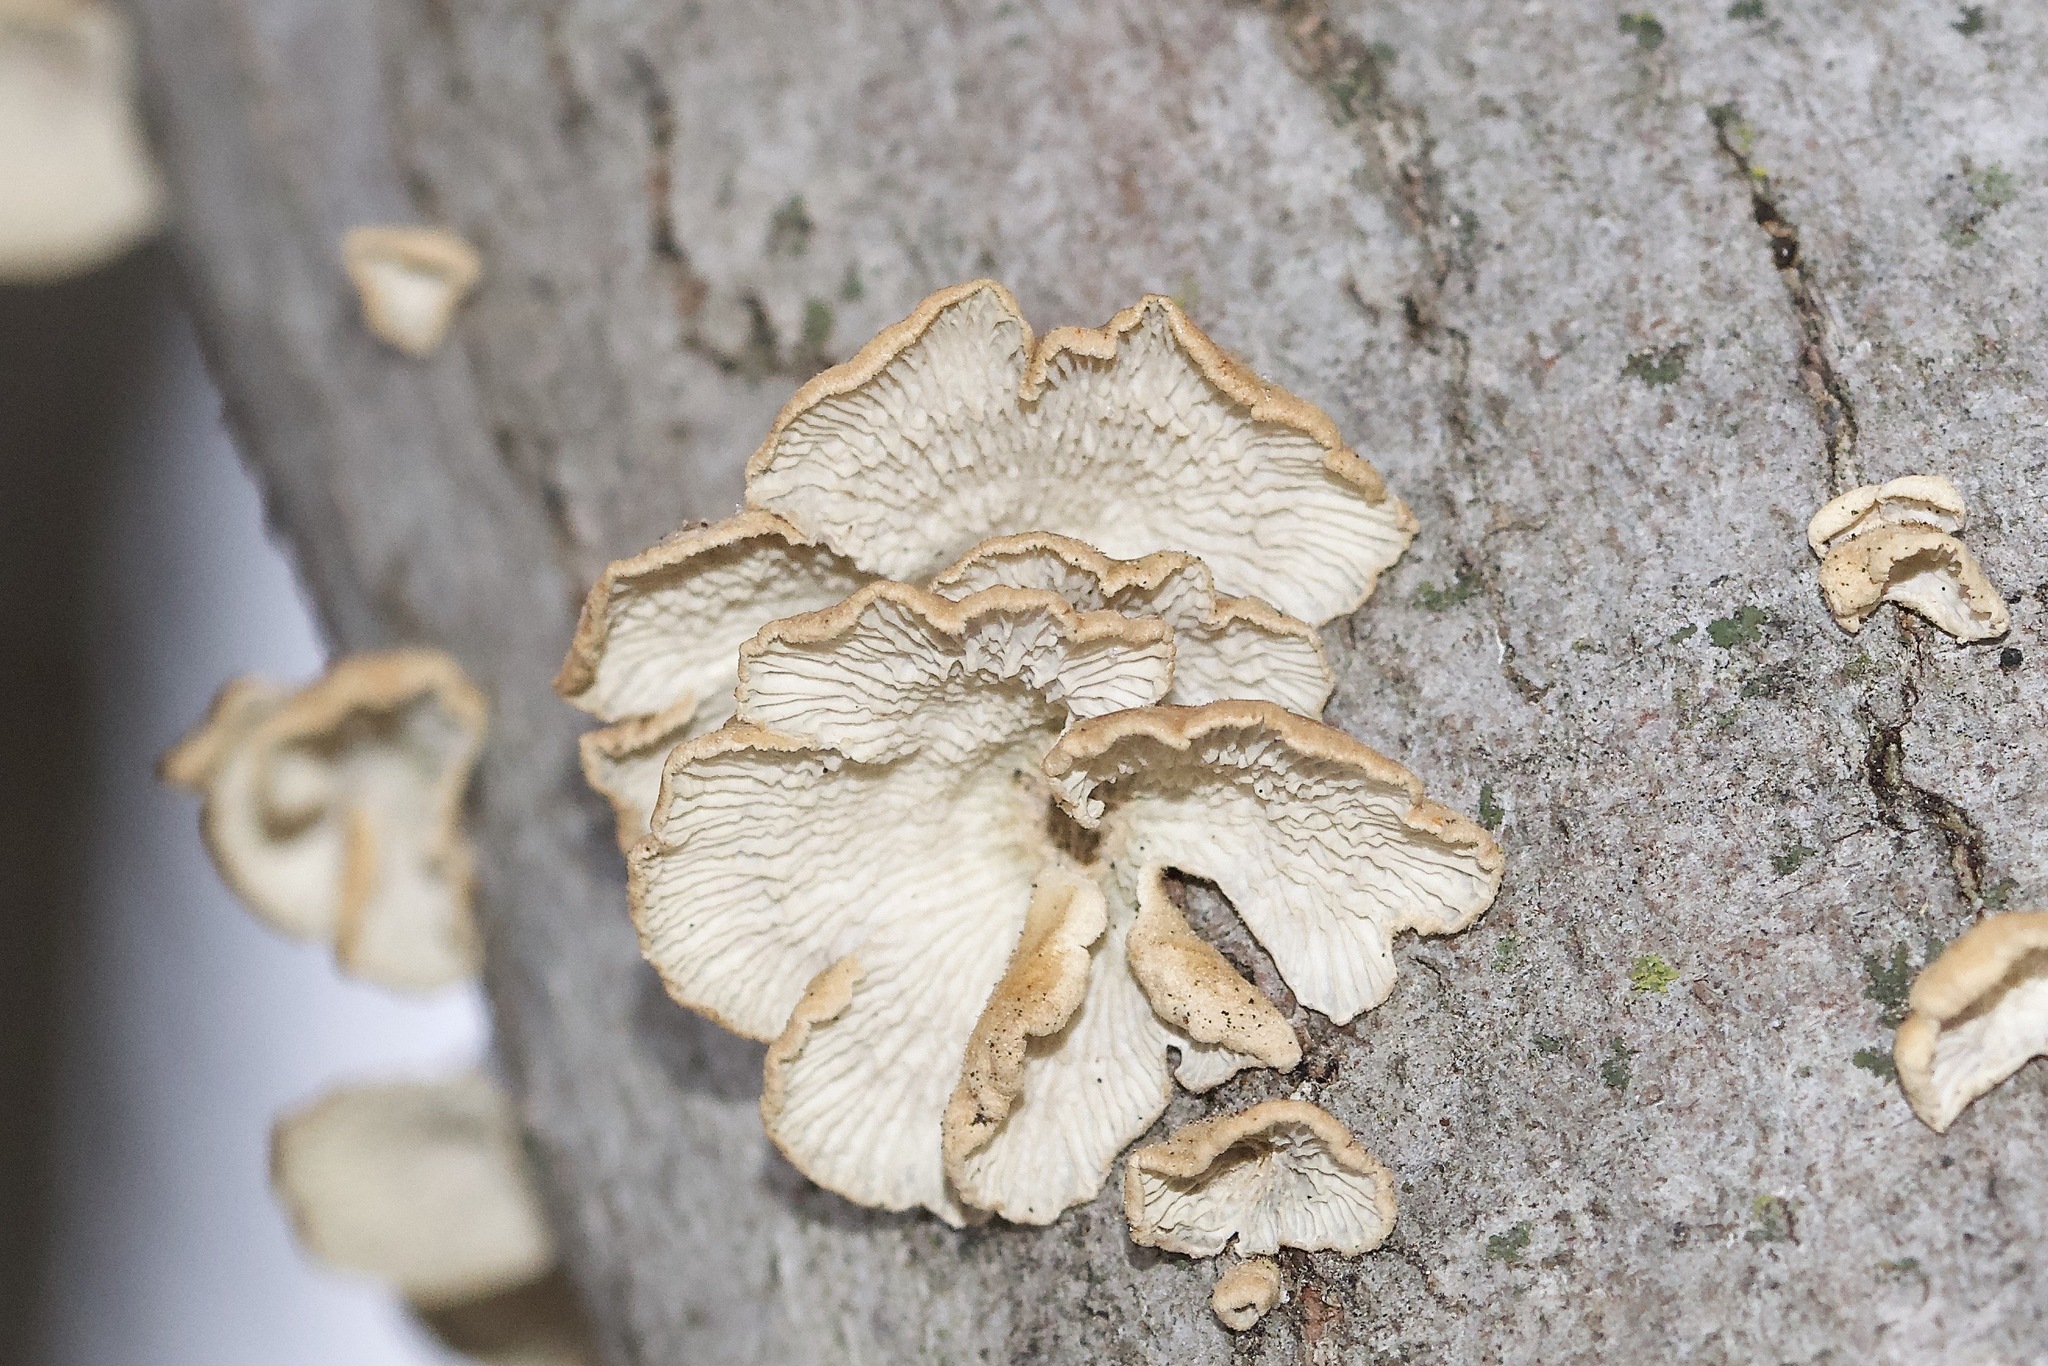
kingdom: Fungi
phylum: Basidiomycota
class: Agaricomycetes
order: Amylocorticiales
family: Amylocorticiaceae
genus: Plicaturopsis
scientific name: Plicaturopsis crispa
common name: Crimped gill
